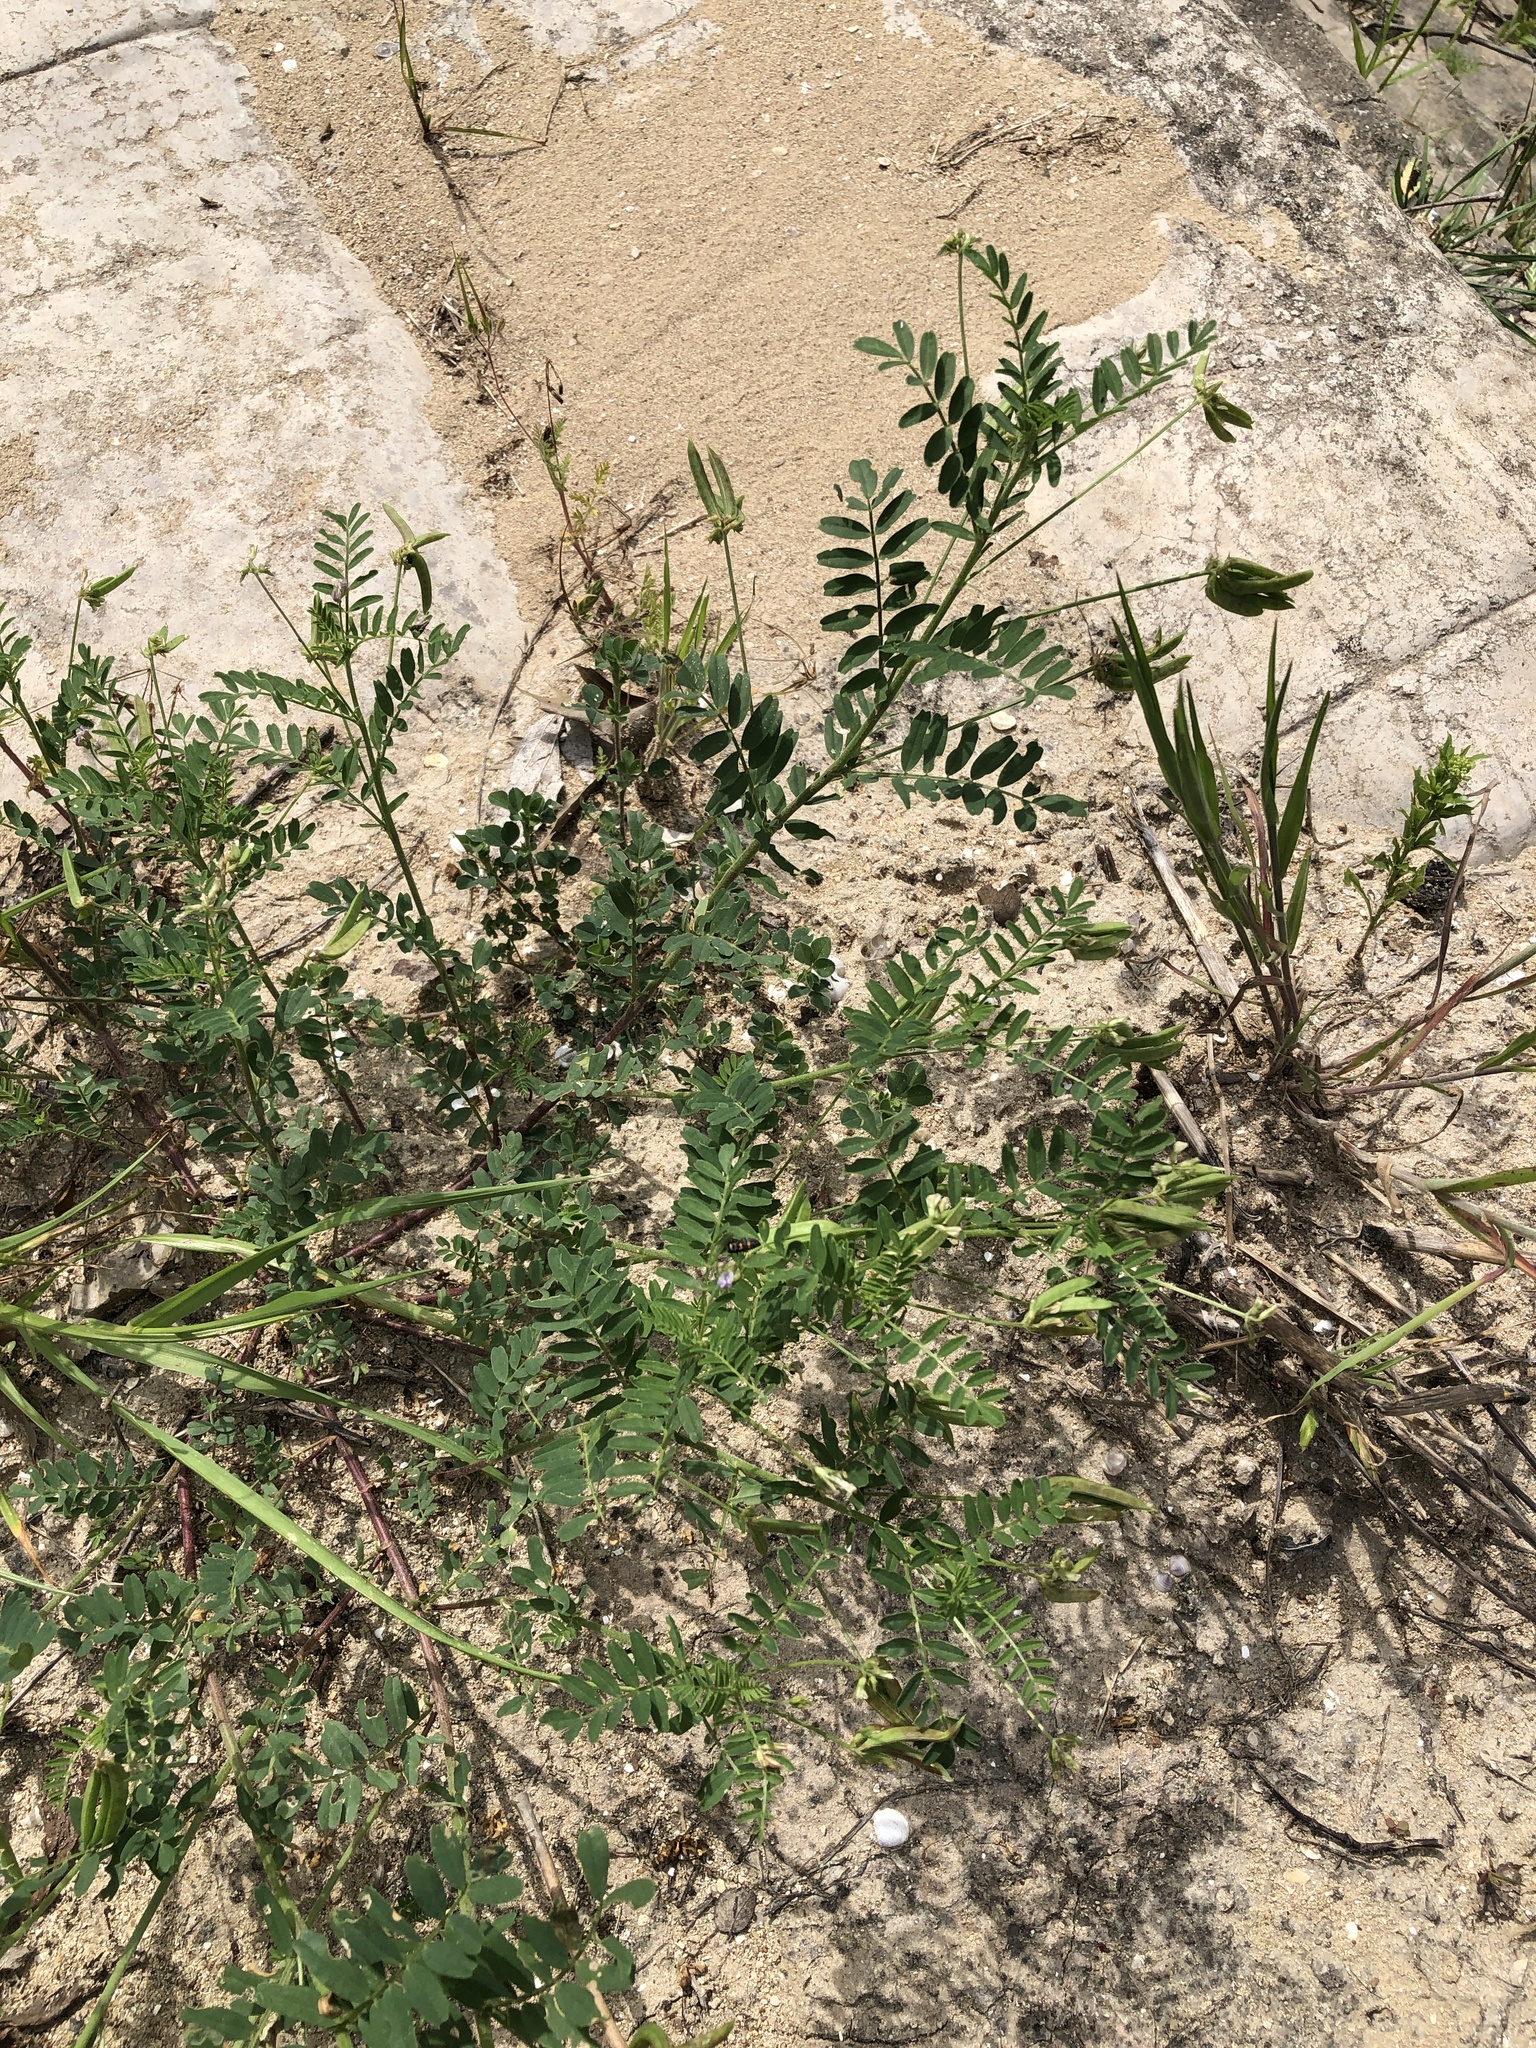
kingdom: Plantae
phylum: Tracheophyta
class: Magnoliopsida
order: Fabales
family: Fabaceae
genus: Astragalus
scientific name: Astragalus nuttallianus
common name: Smallflowered milkvetch
